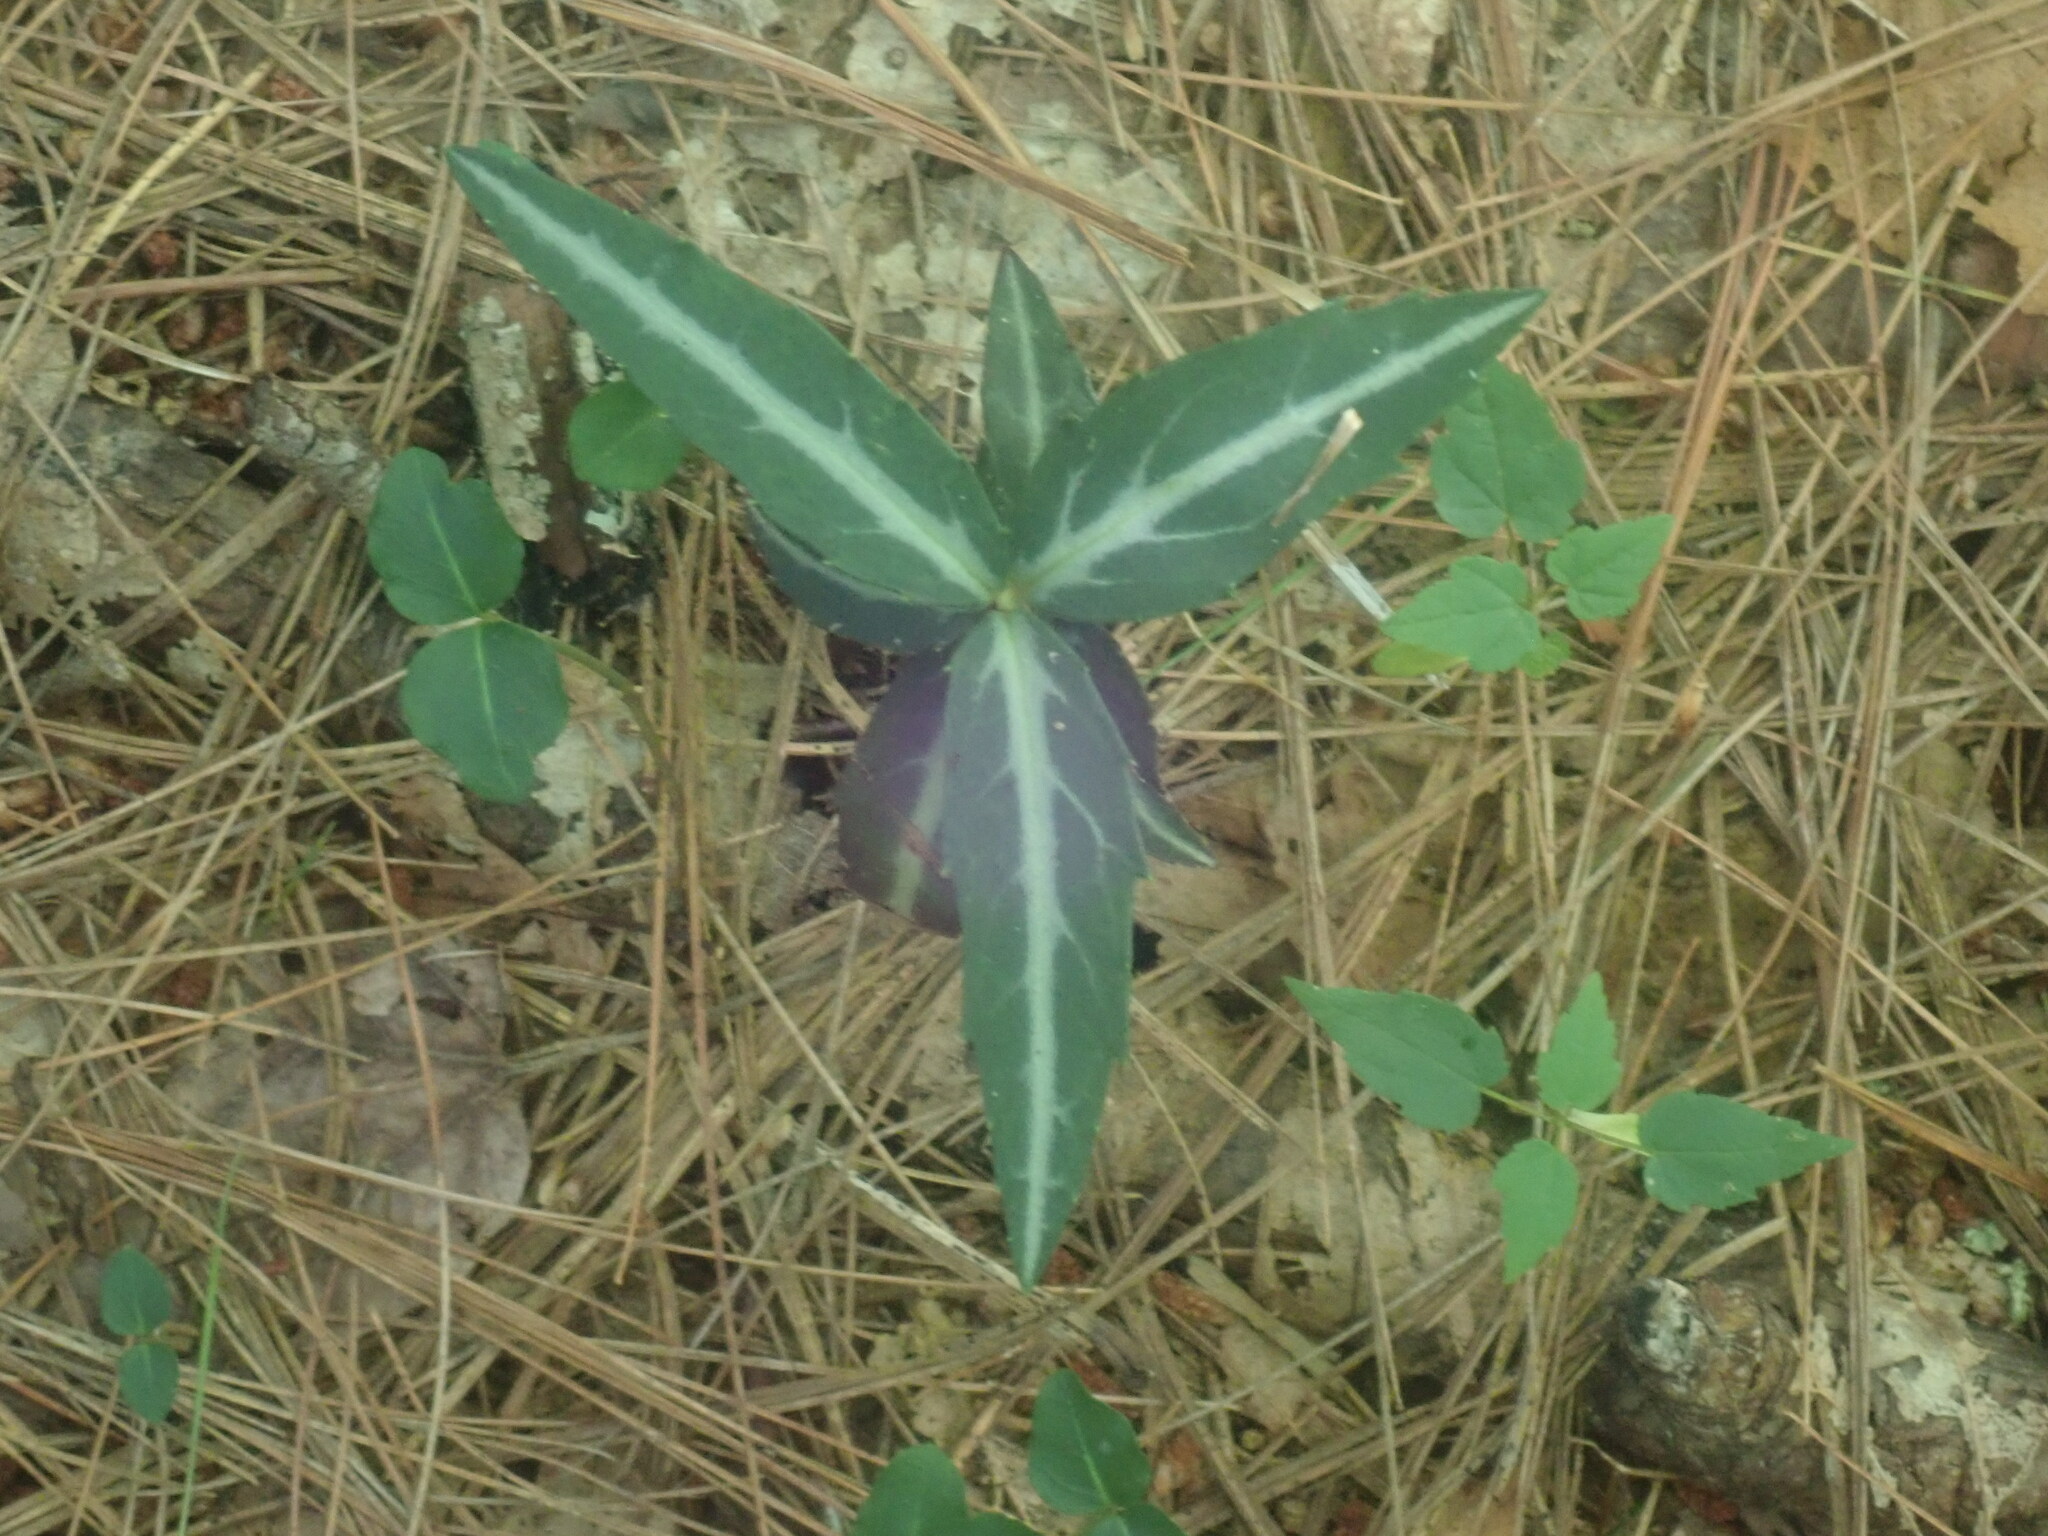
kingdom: Plantae
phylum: Tracheophyta
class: Magnoliopsida
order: Ericales
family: Ericaceae
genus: Chimaphila
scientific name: Chimaphila maculata
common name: Spotted pipsissewa
